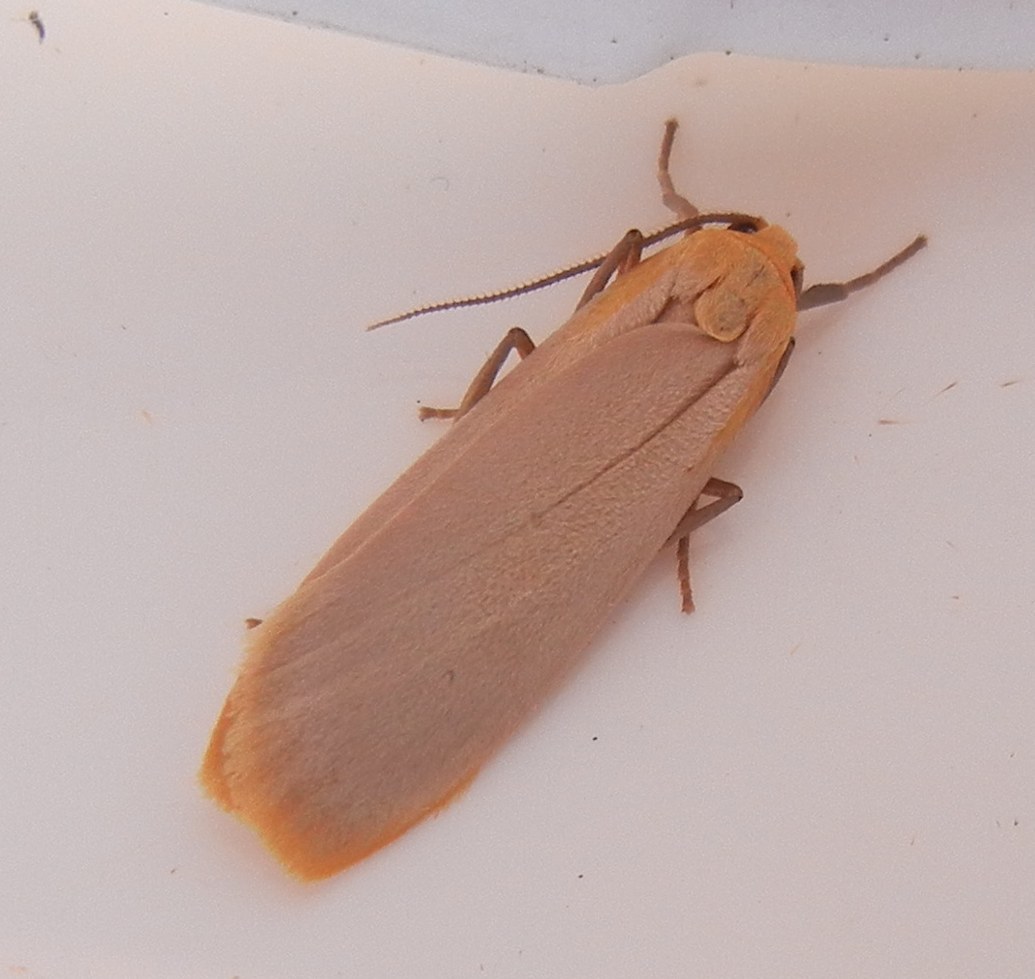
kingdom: Animalia
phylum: Arthropoda
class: Insecta
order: Lepidoptera
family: Erebidae
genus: Katha
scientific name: Katha depressa
